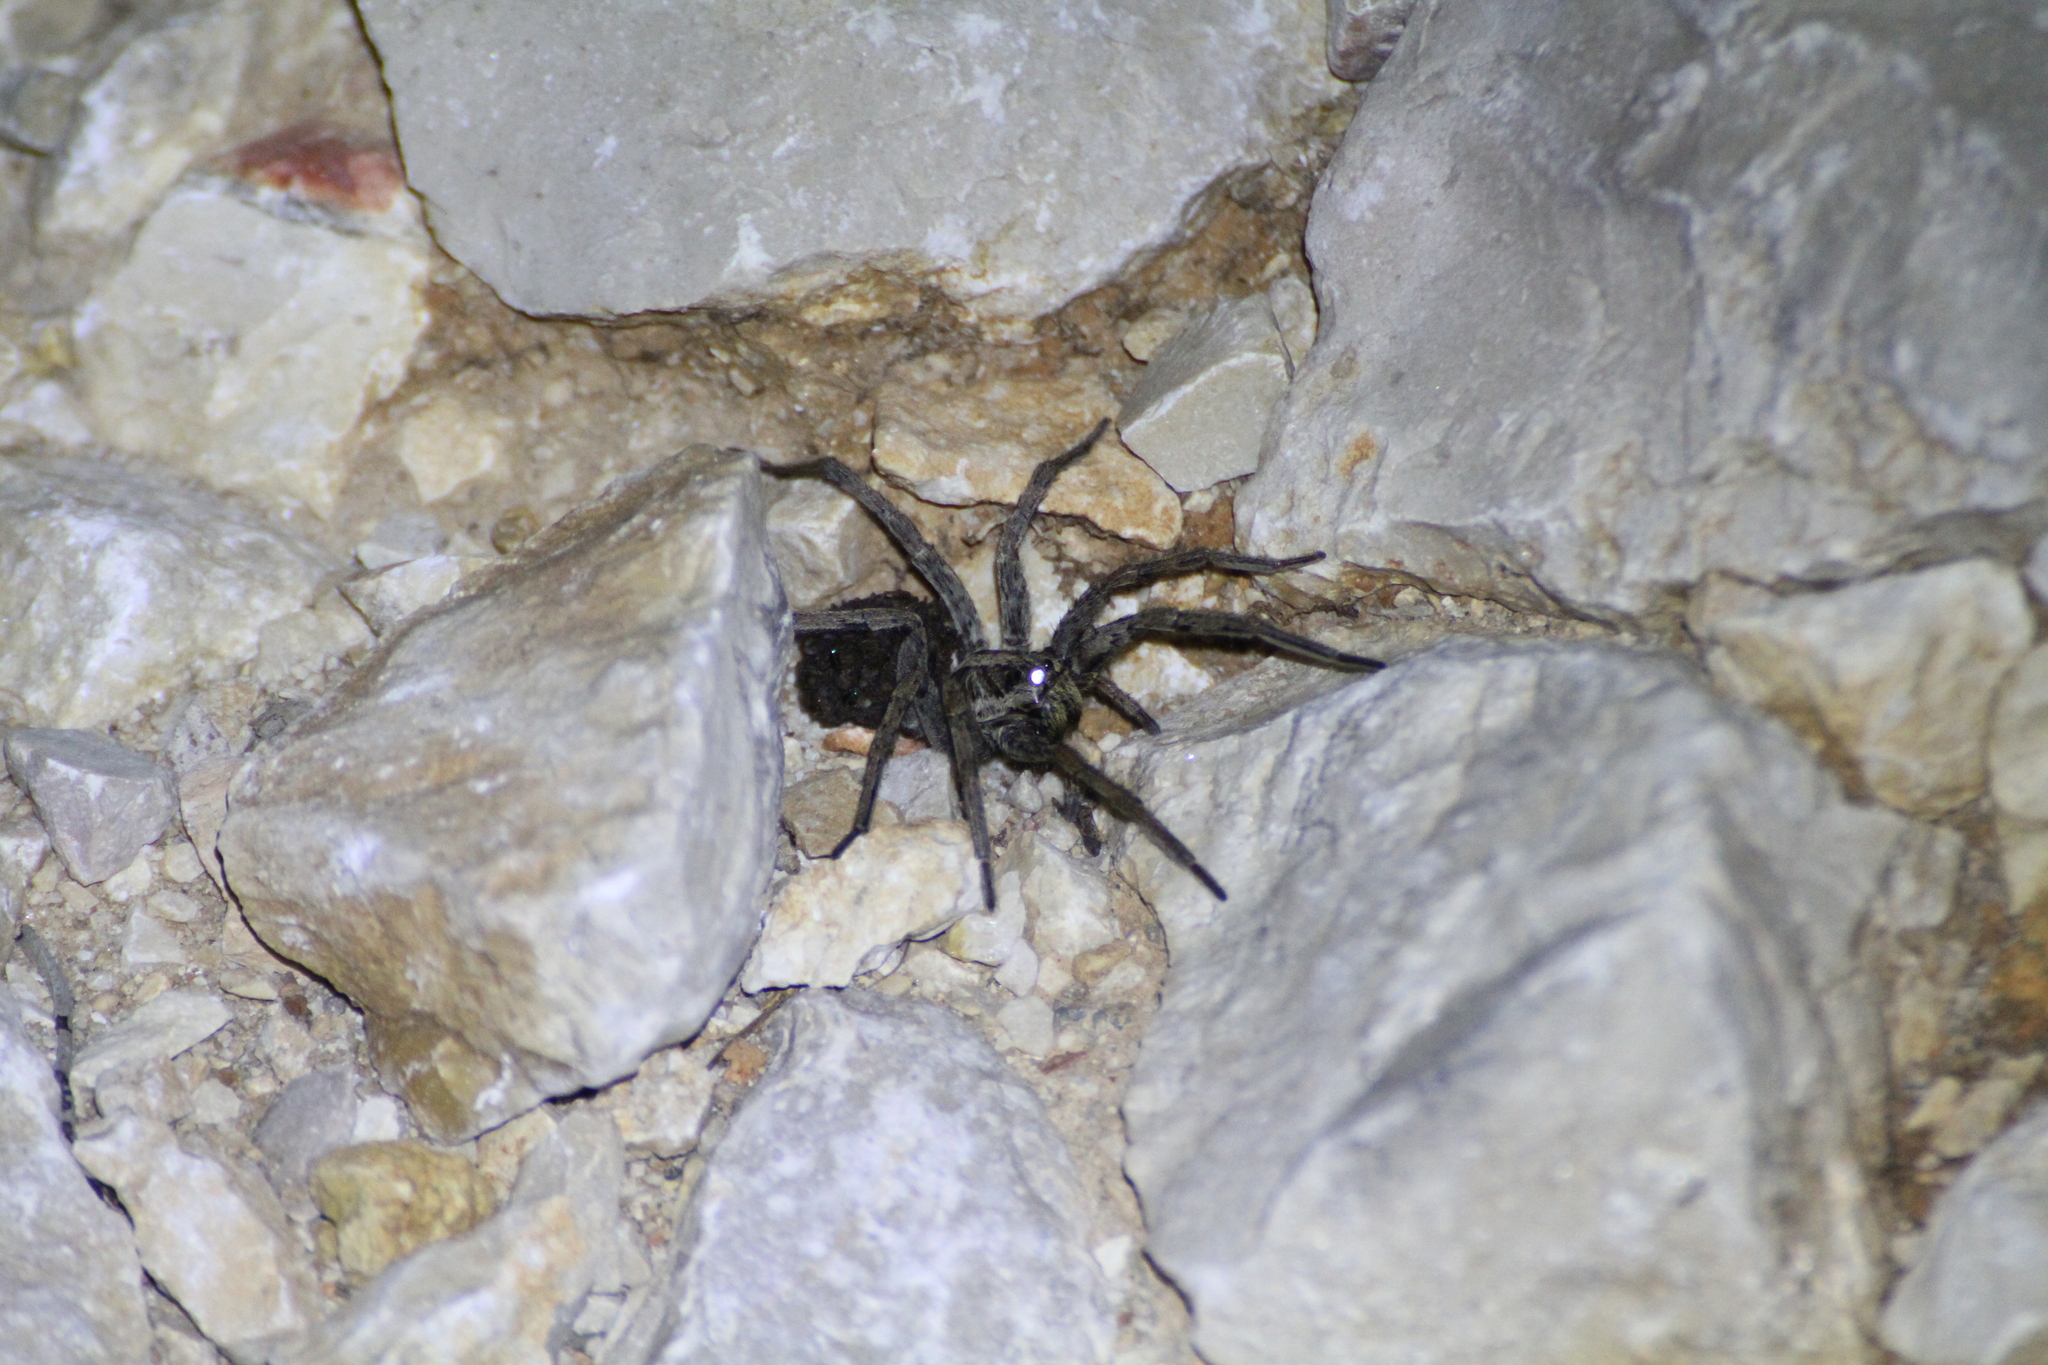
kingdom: Animalia
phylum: Arthropoda
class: Arachnida
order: Araneae
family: Lycosidae
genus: Hogna
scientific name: Hogna radiata
